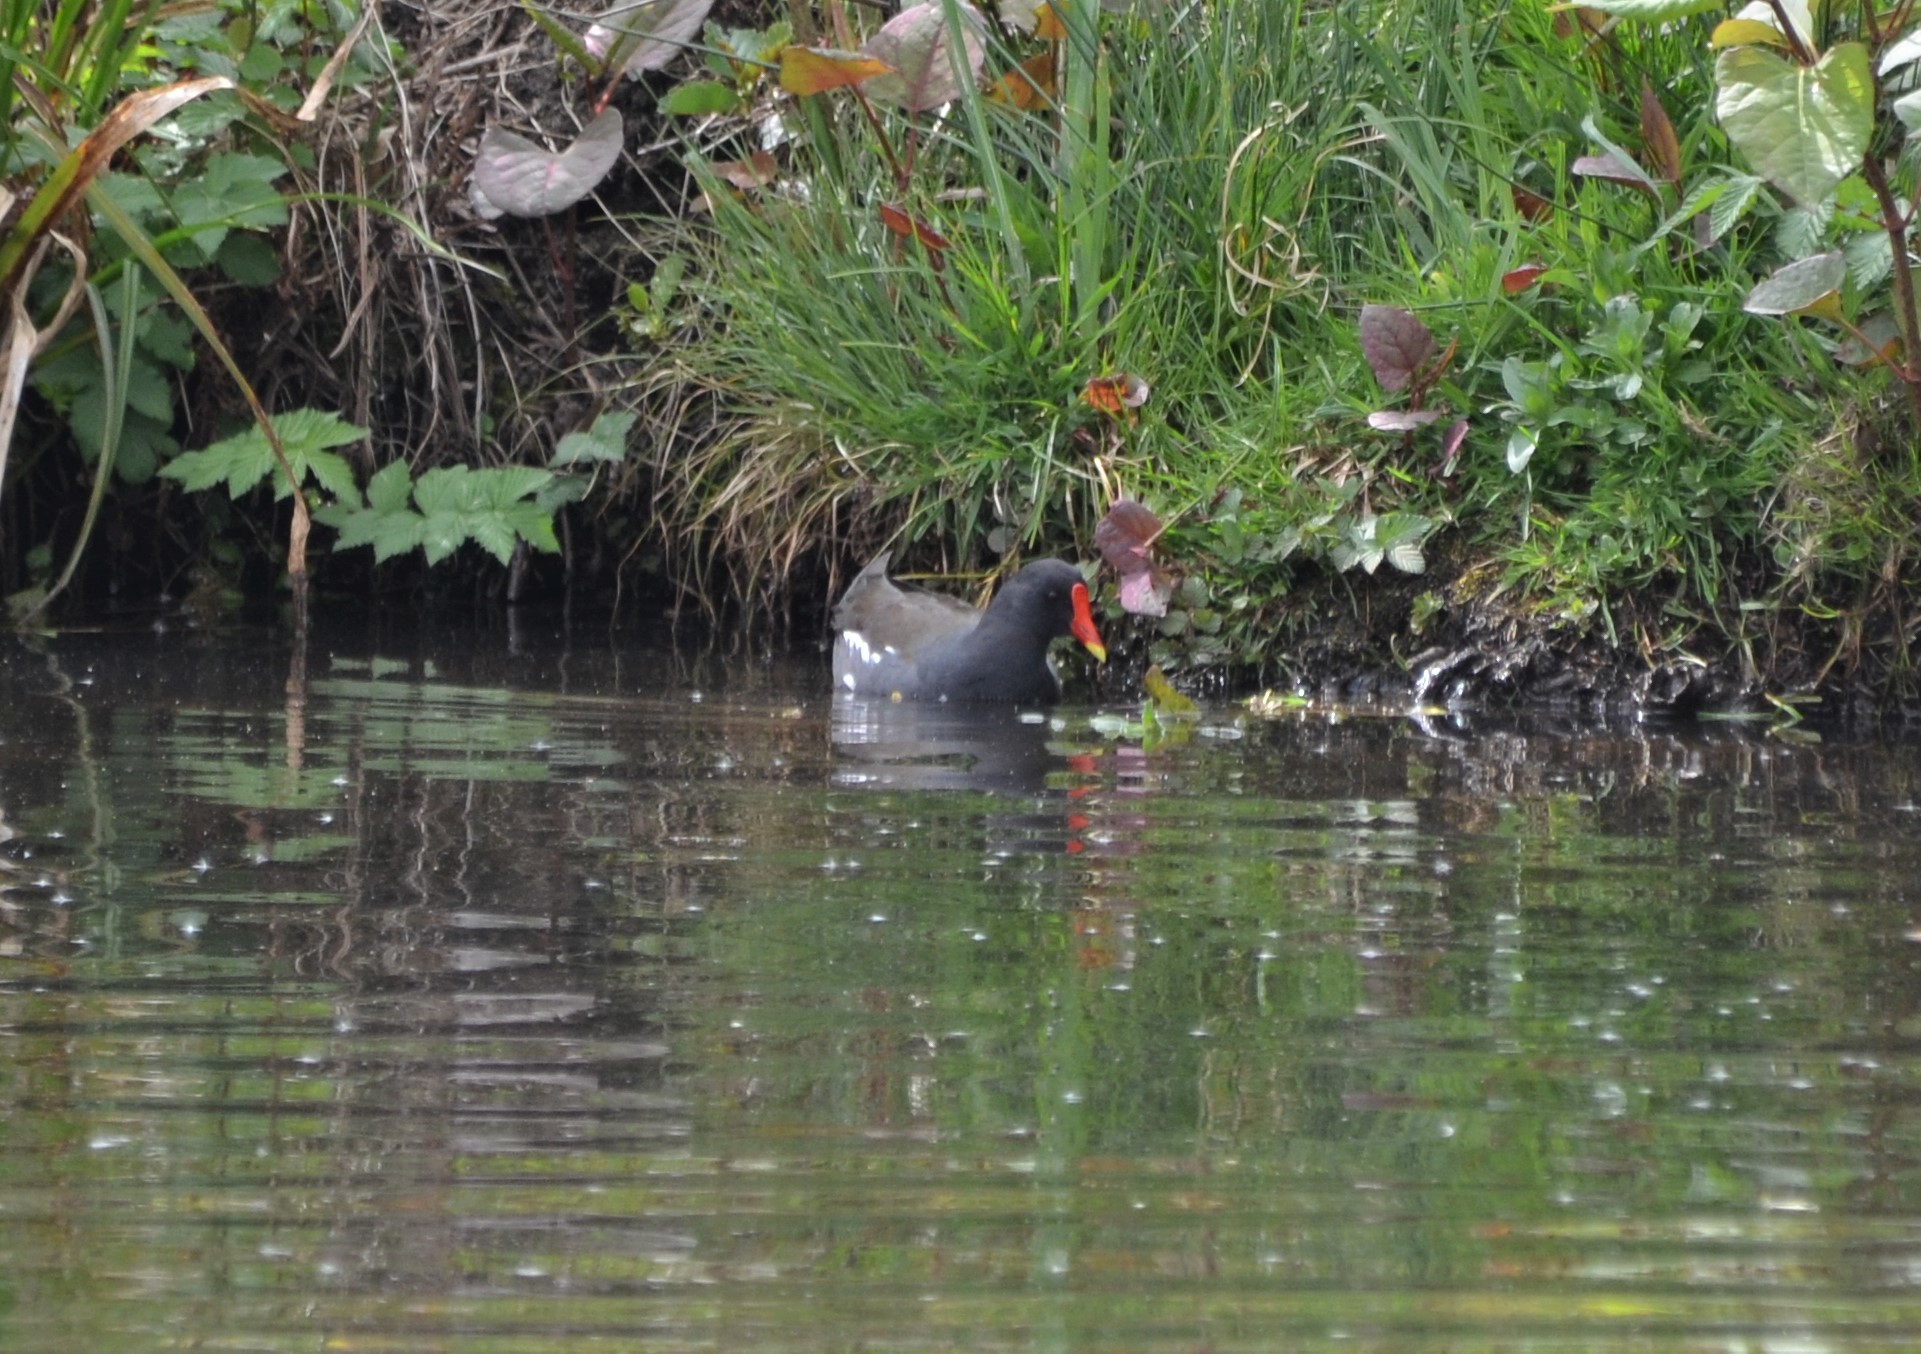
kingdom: Animalia
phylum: Chordata
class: Aves
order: Gruiformes
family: Rallidae
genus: Gallinula
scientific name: Gallinula chloropus
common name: Common moorhen
